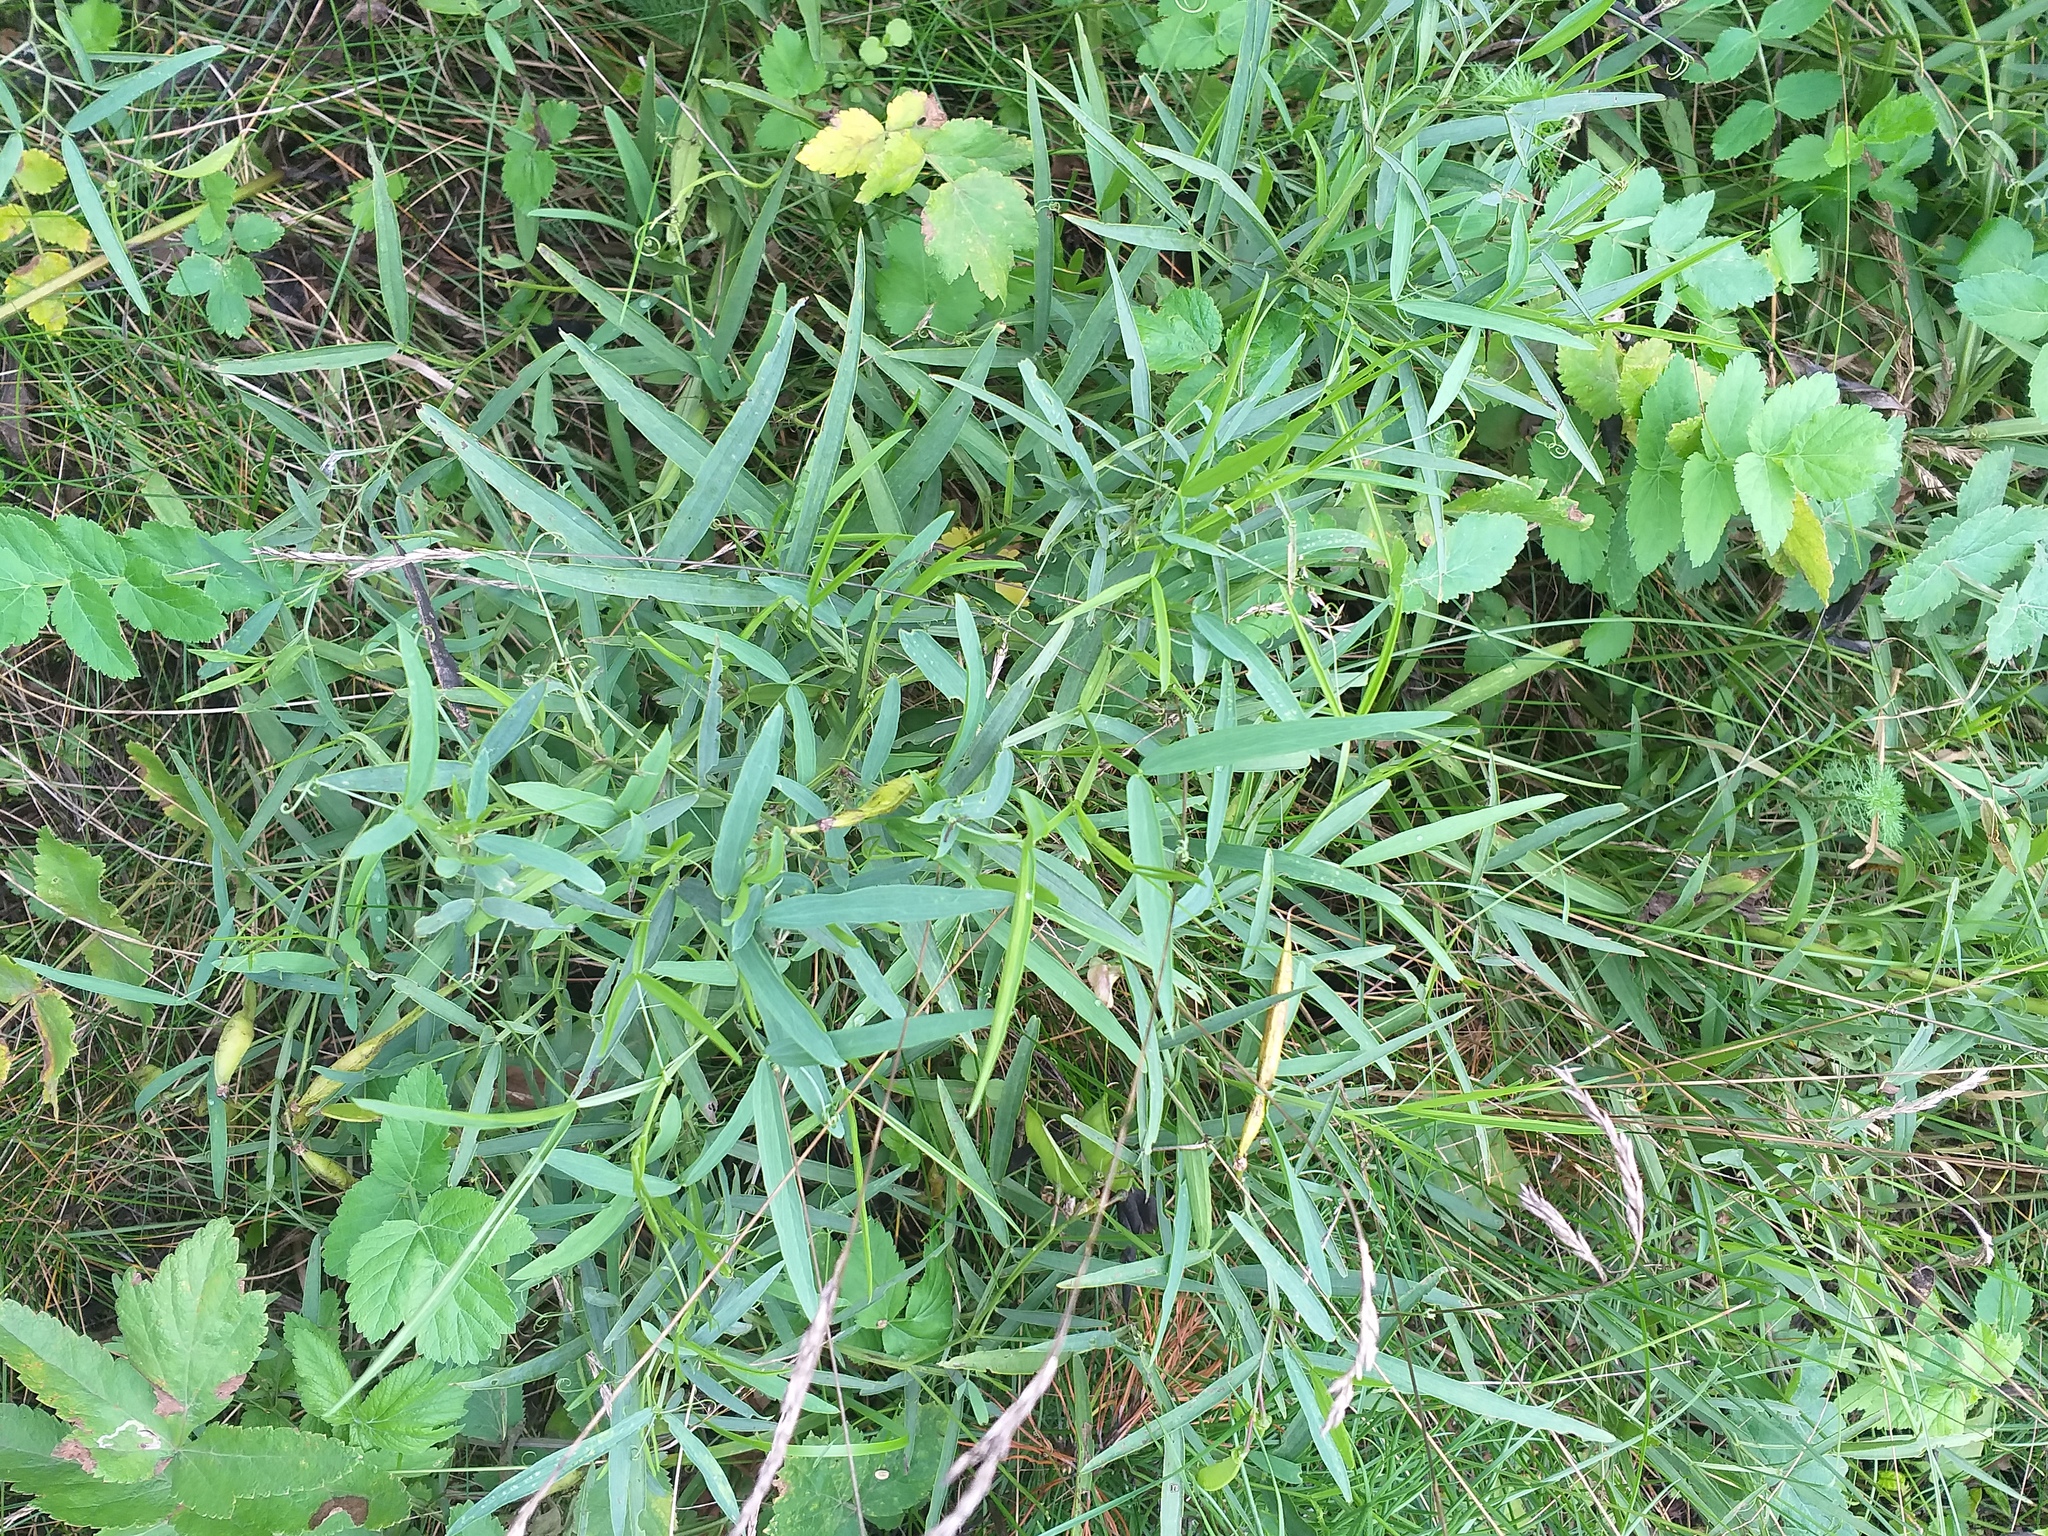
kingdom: Plantae
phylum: Tracheophyta
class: Magnoliopsida
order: Fabales
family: Fabaceae
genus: Lathyrus
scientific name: Lathyrus sylvestris
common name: Flat pea
